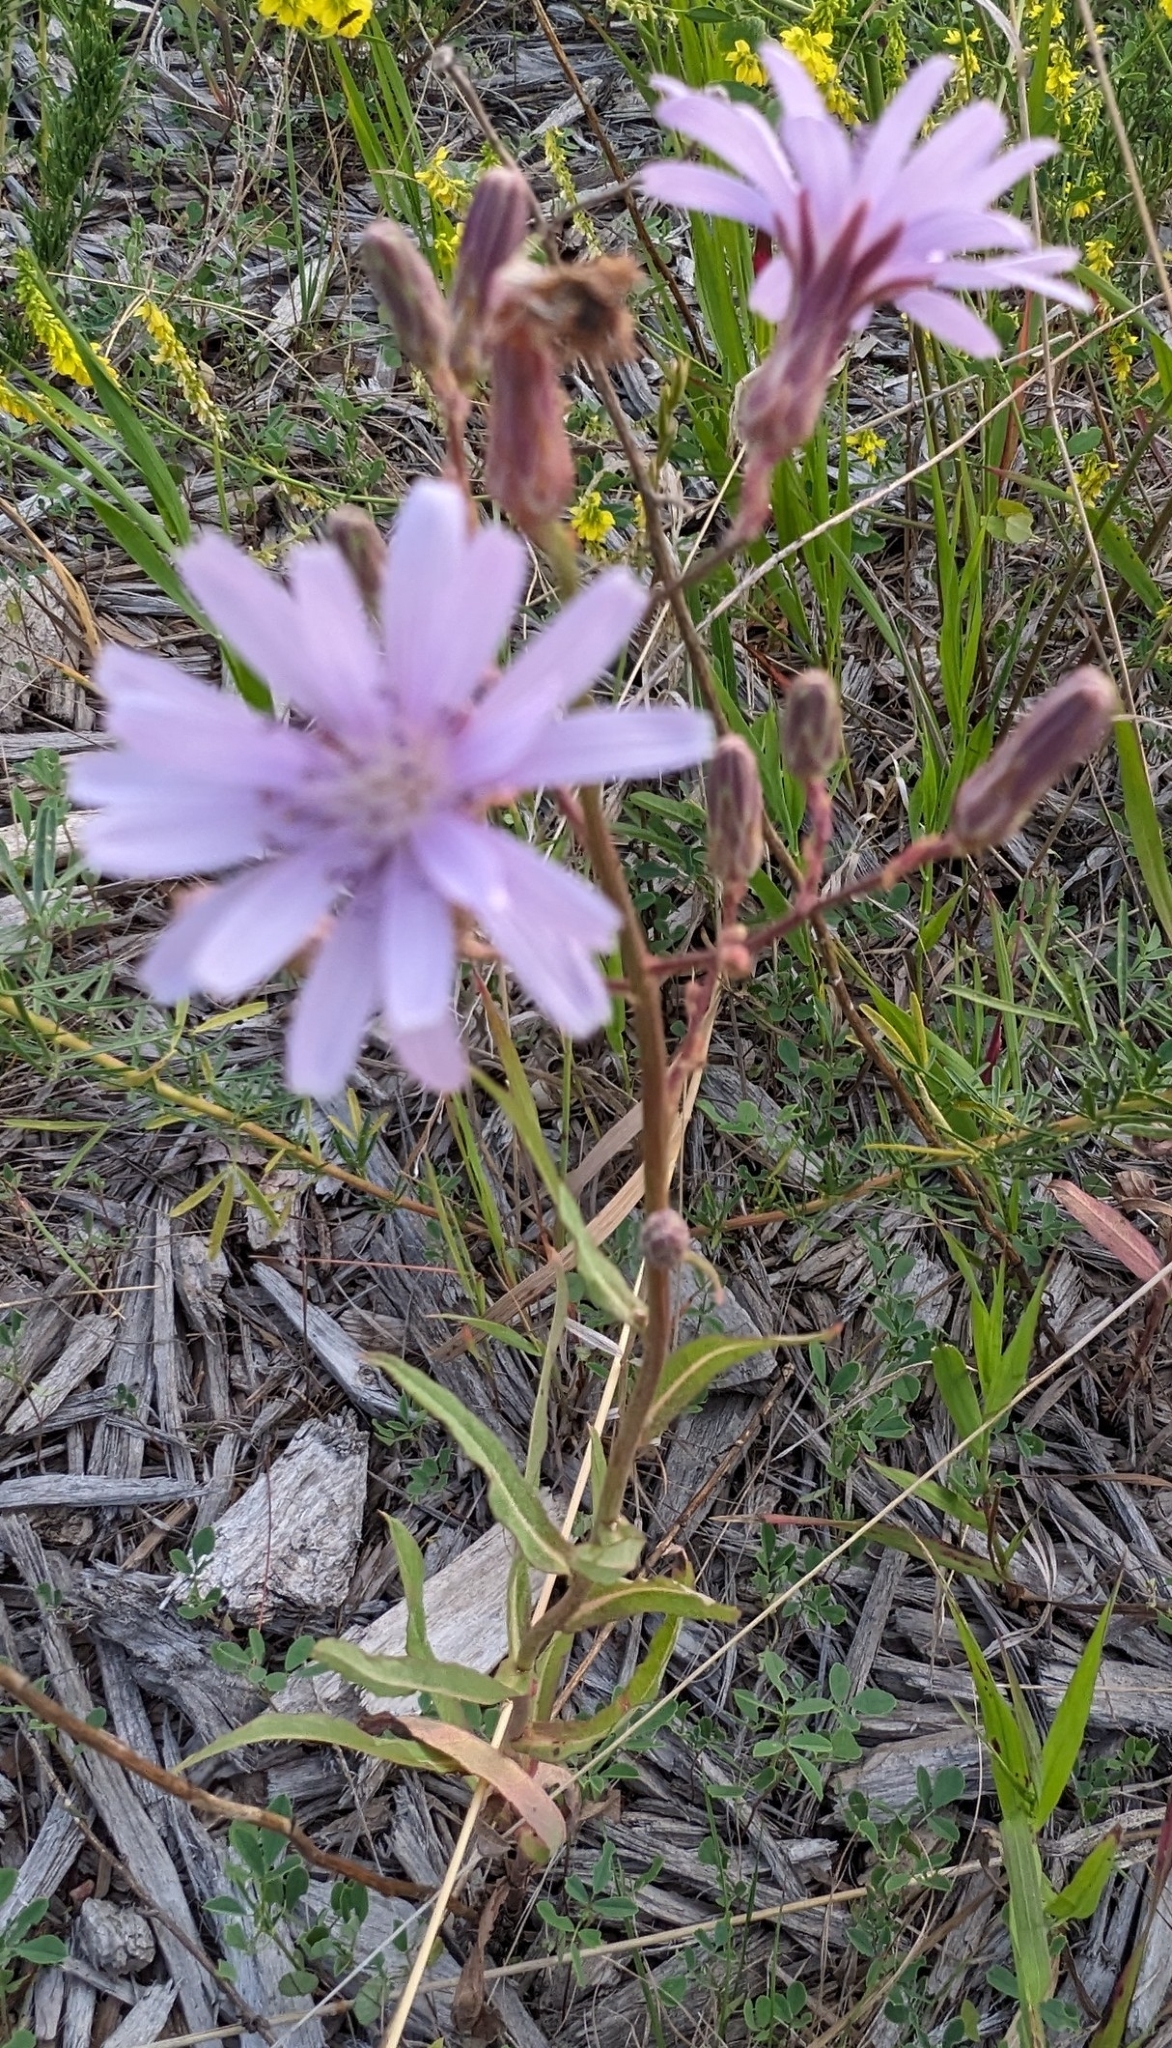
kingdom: Plantae
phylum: Tracheophyta
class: Magnoliopsida
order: Asterales
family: Asteraceae
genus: Lactuca
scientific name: Lactuca pulchella
